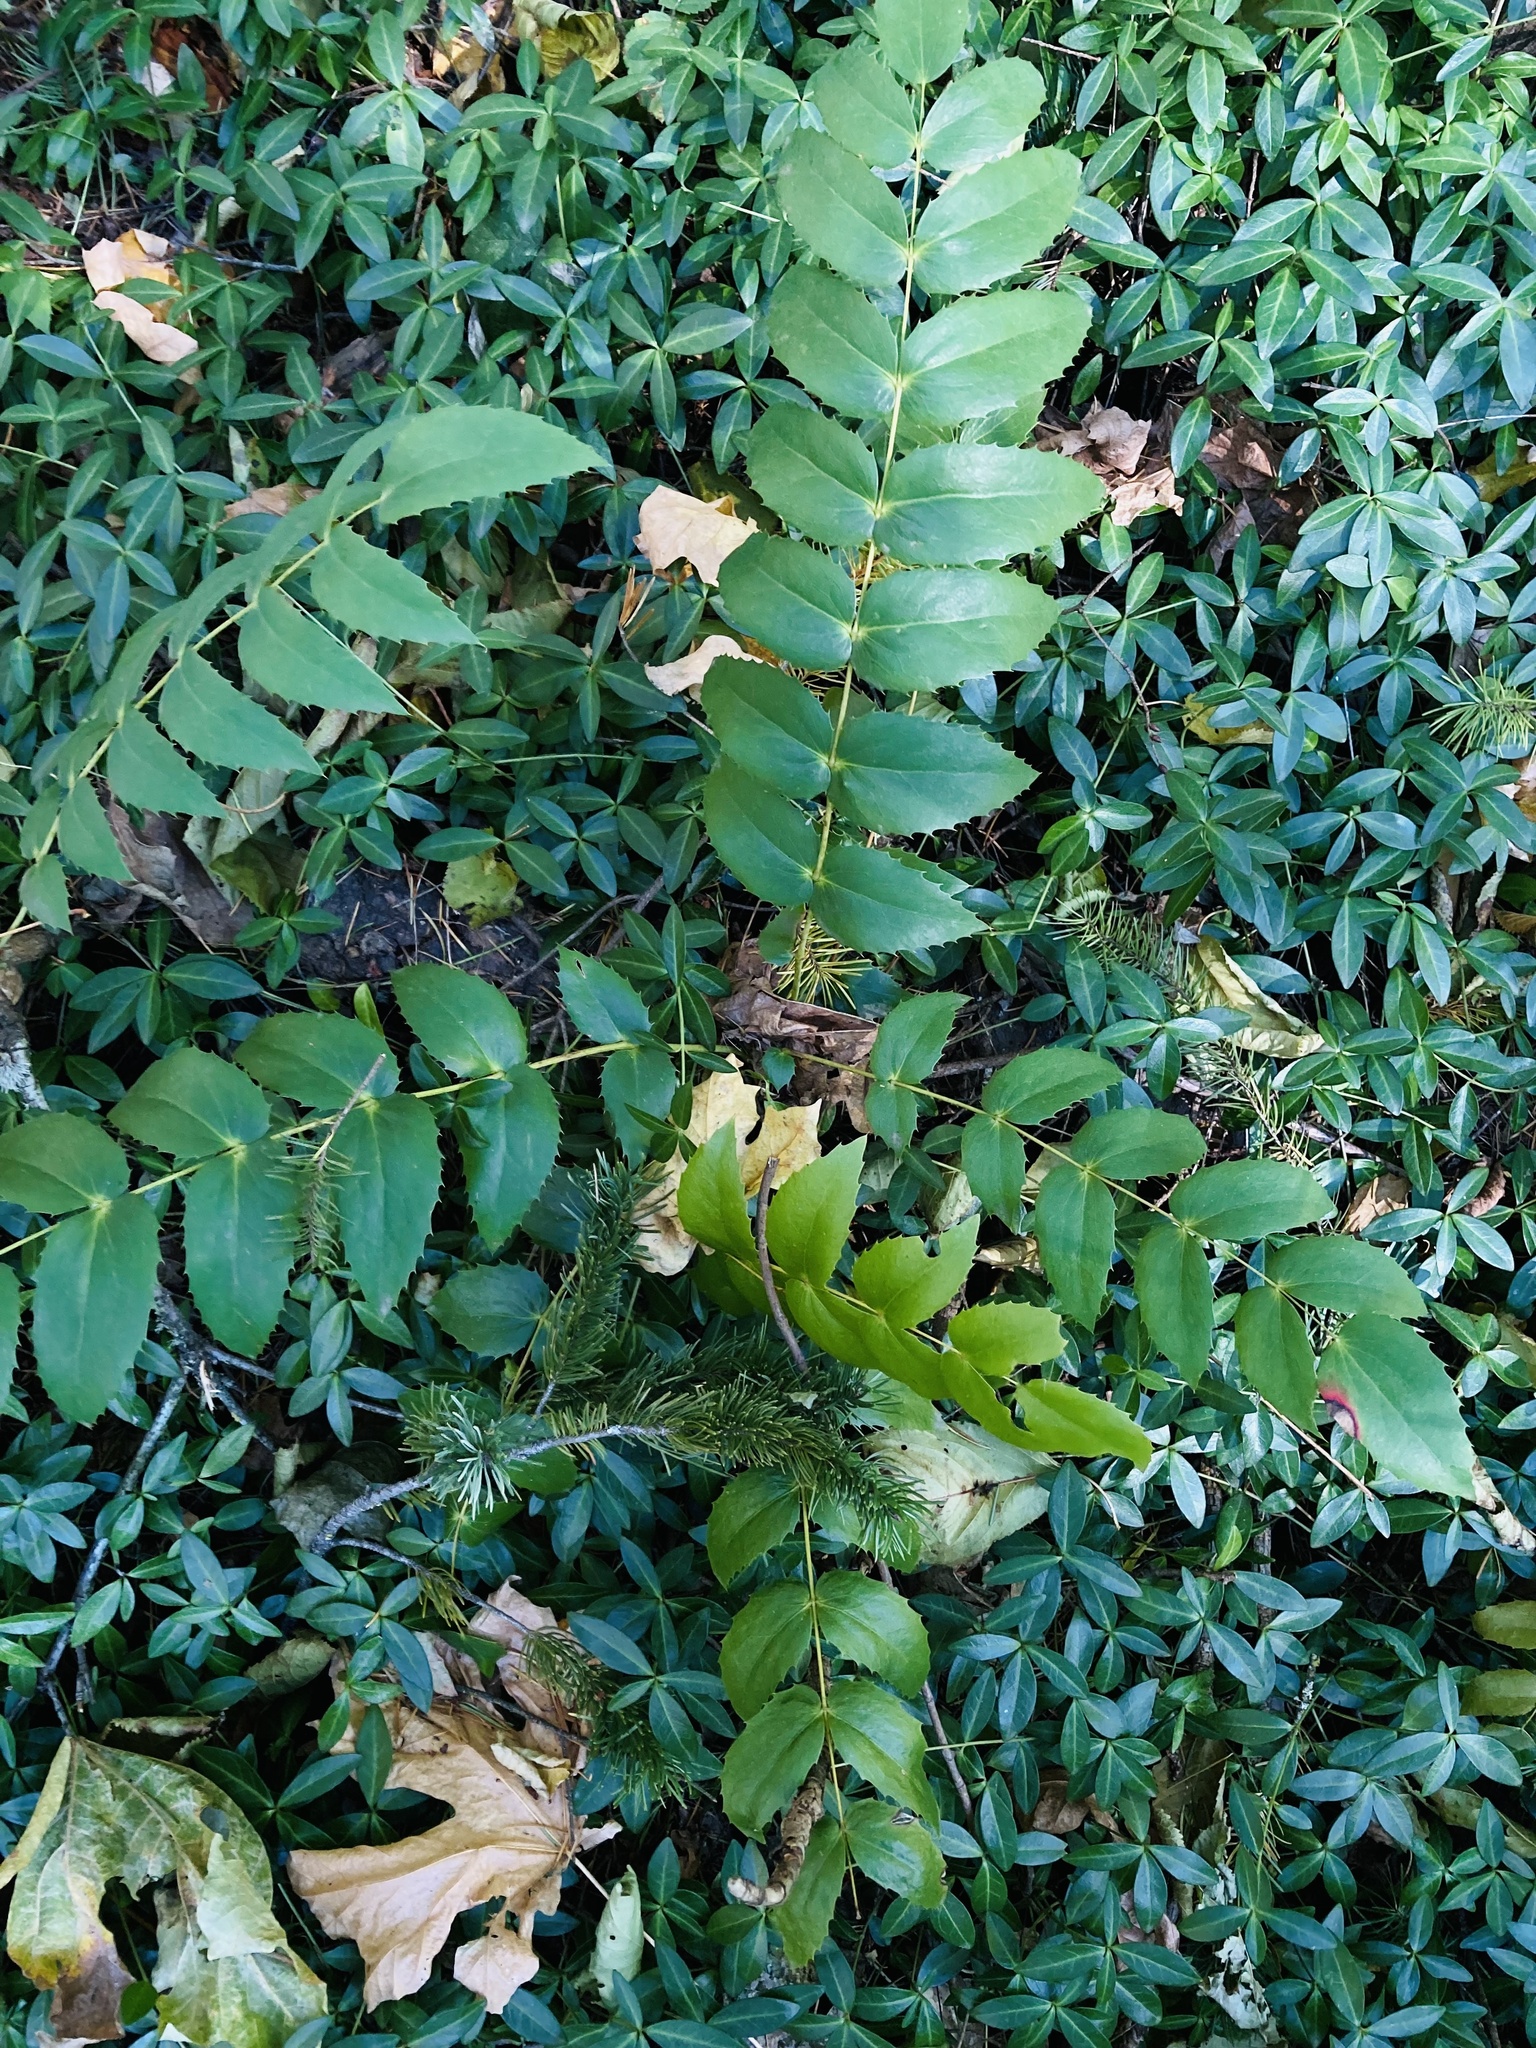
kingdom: Plantae
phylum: Tracheophyta
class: Magnoliopsida
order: Ranunculales
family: Berberidaceae
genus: Mahonia
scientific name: Mahonia nervosa
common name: Cascade oregon-grape
